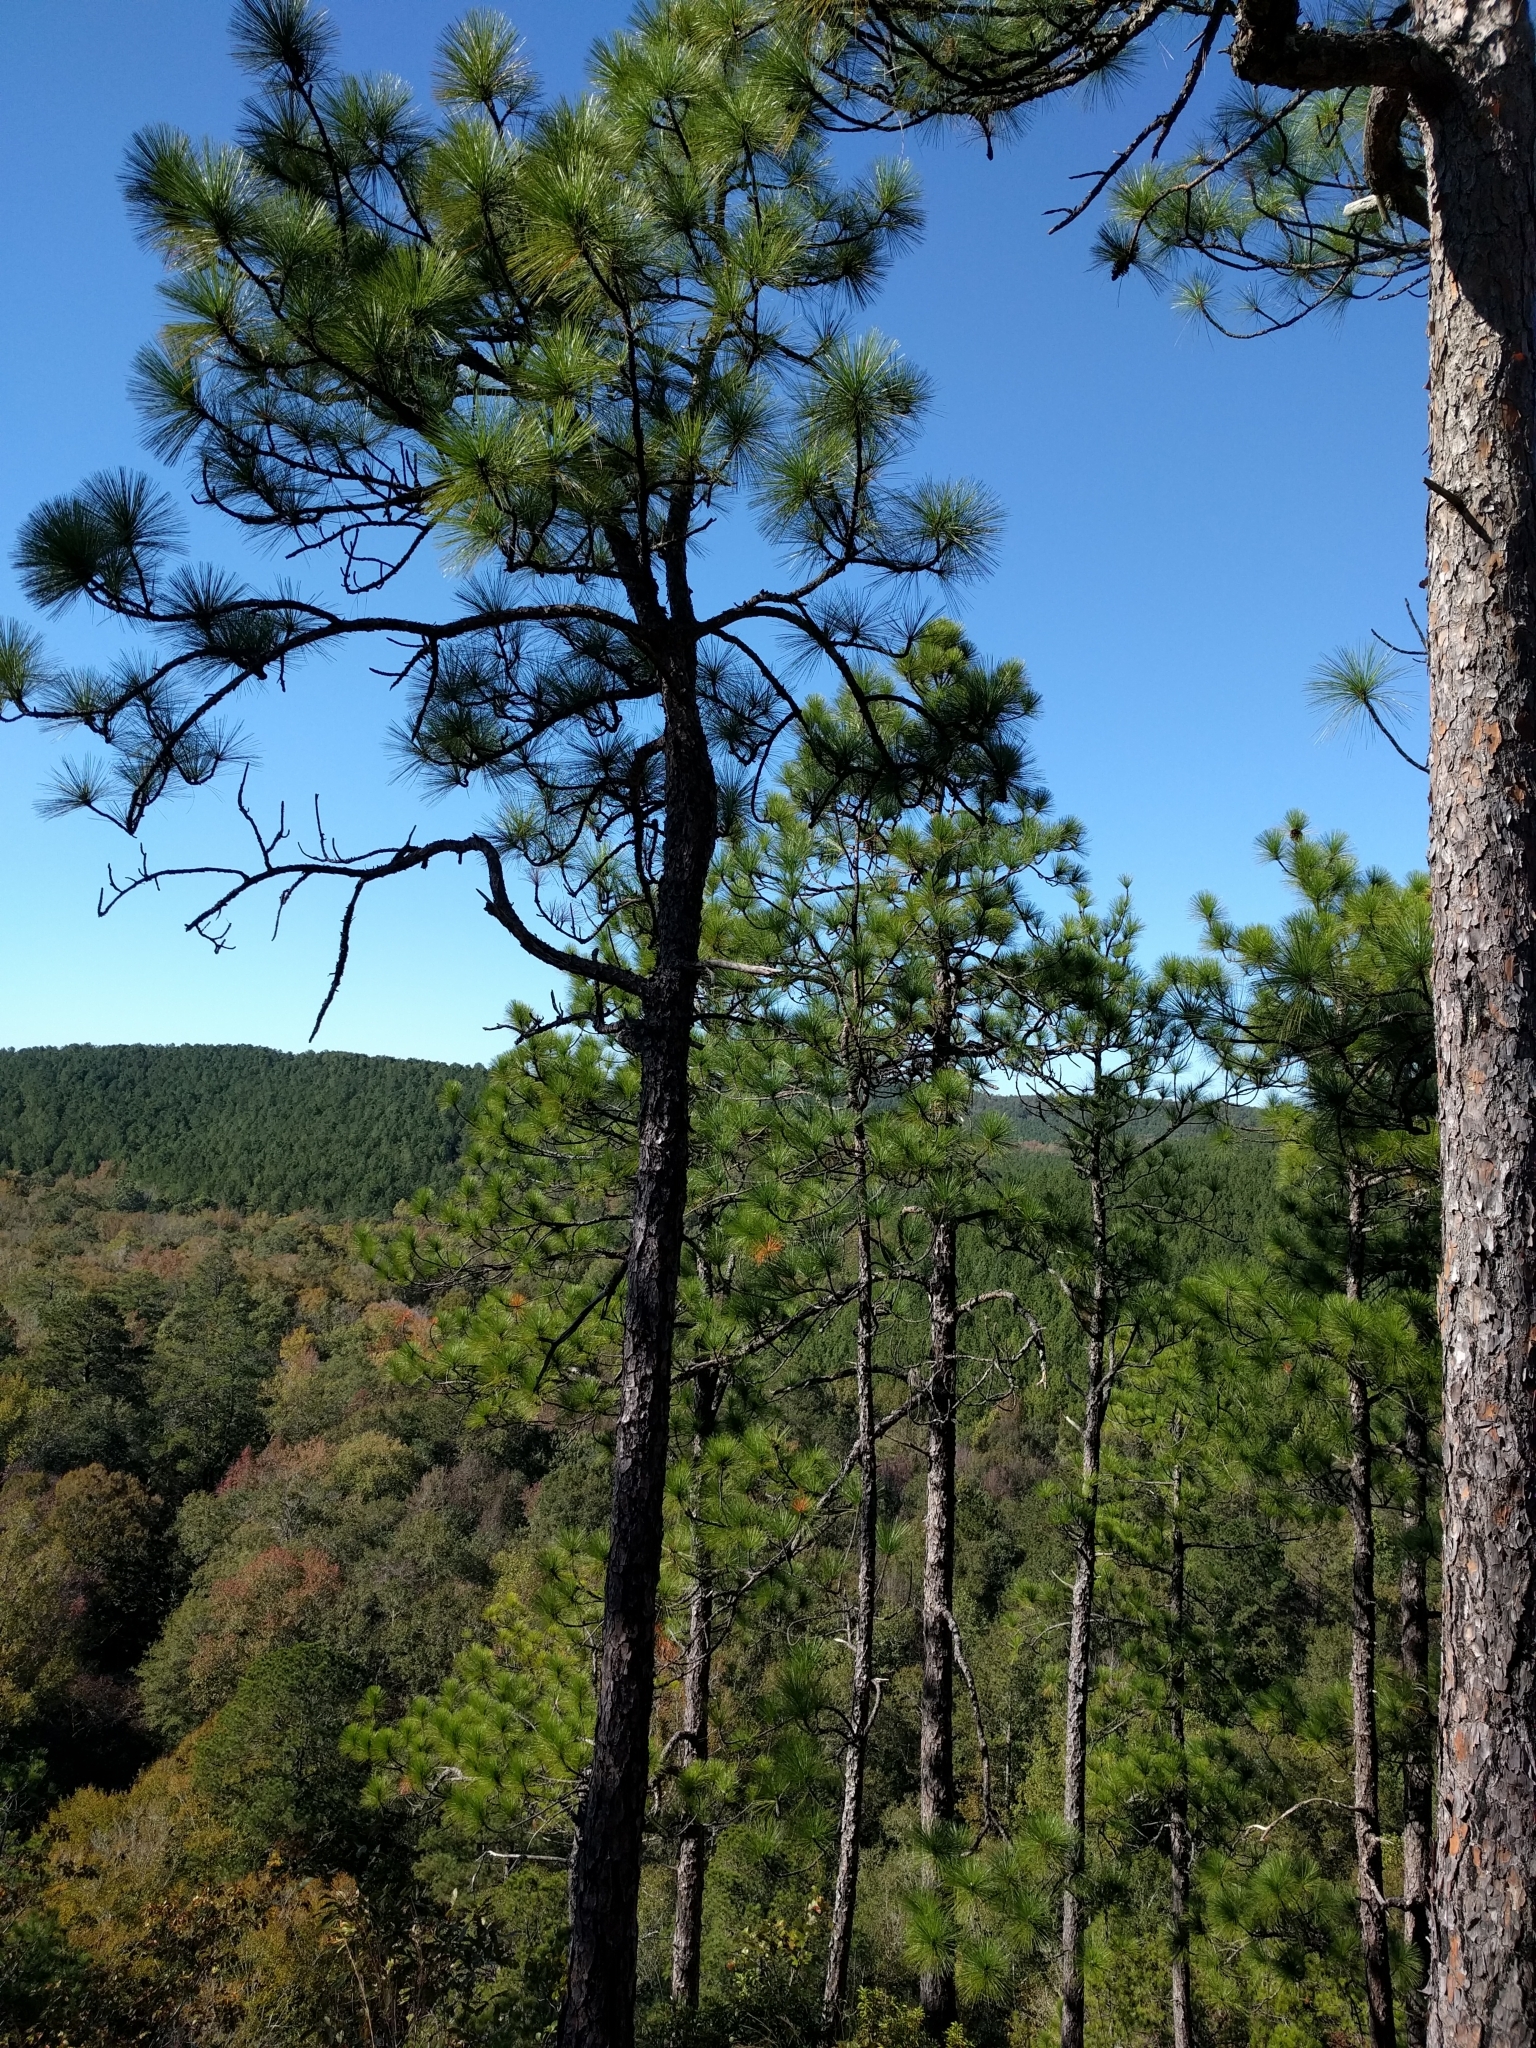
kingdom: Plantae
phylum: Tracheophyta
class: Pinopsida
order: Pinales
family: Pinaceae
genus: Pinus
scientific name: Pinus palustris
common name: Longleaf pine
